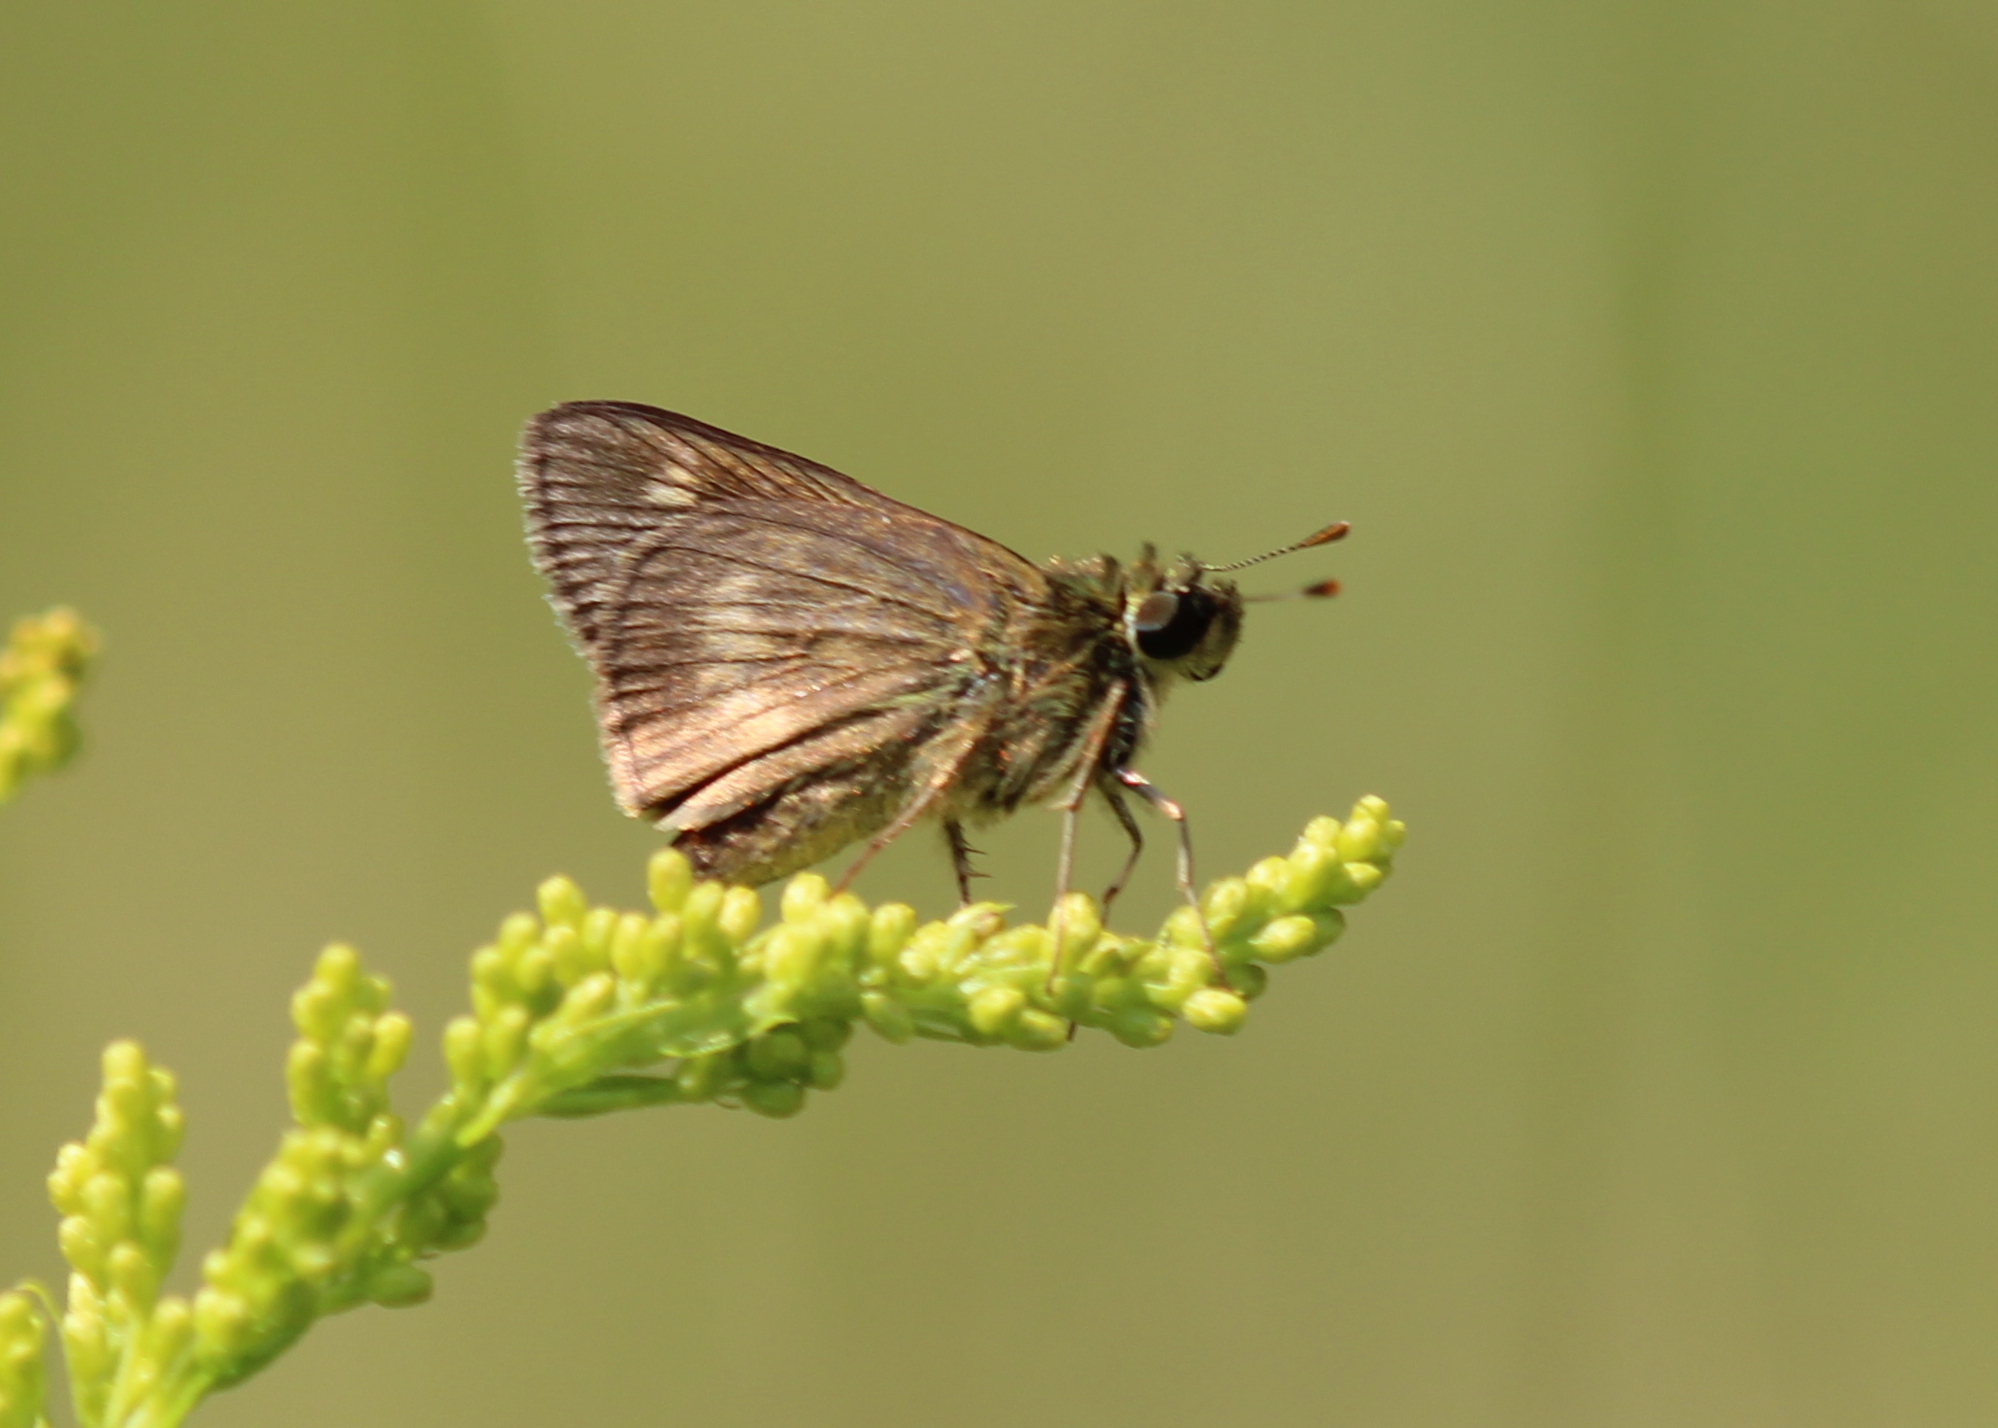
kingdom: Animalia
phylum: Arthropoda
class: Insecta
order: Lepidoptera
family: Hesperiidae
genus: Polites
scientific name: Polites egeremet
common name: Northern broken-dash
